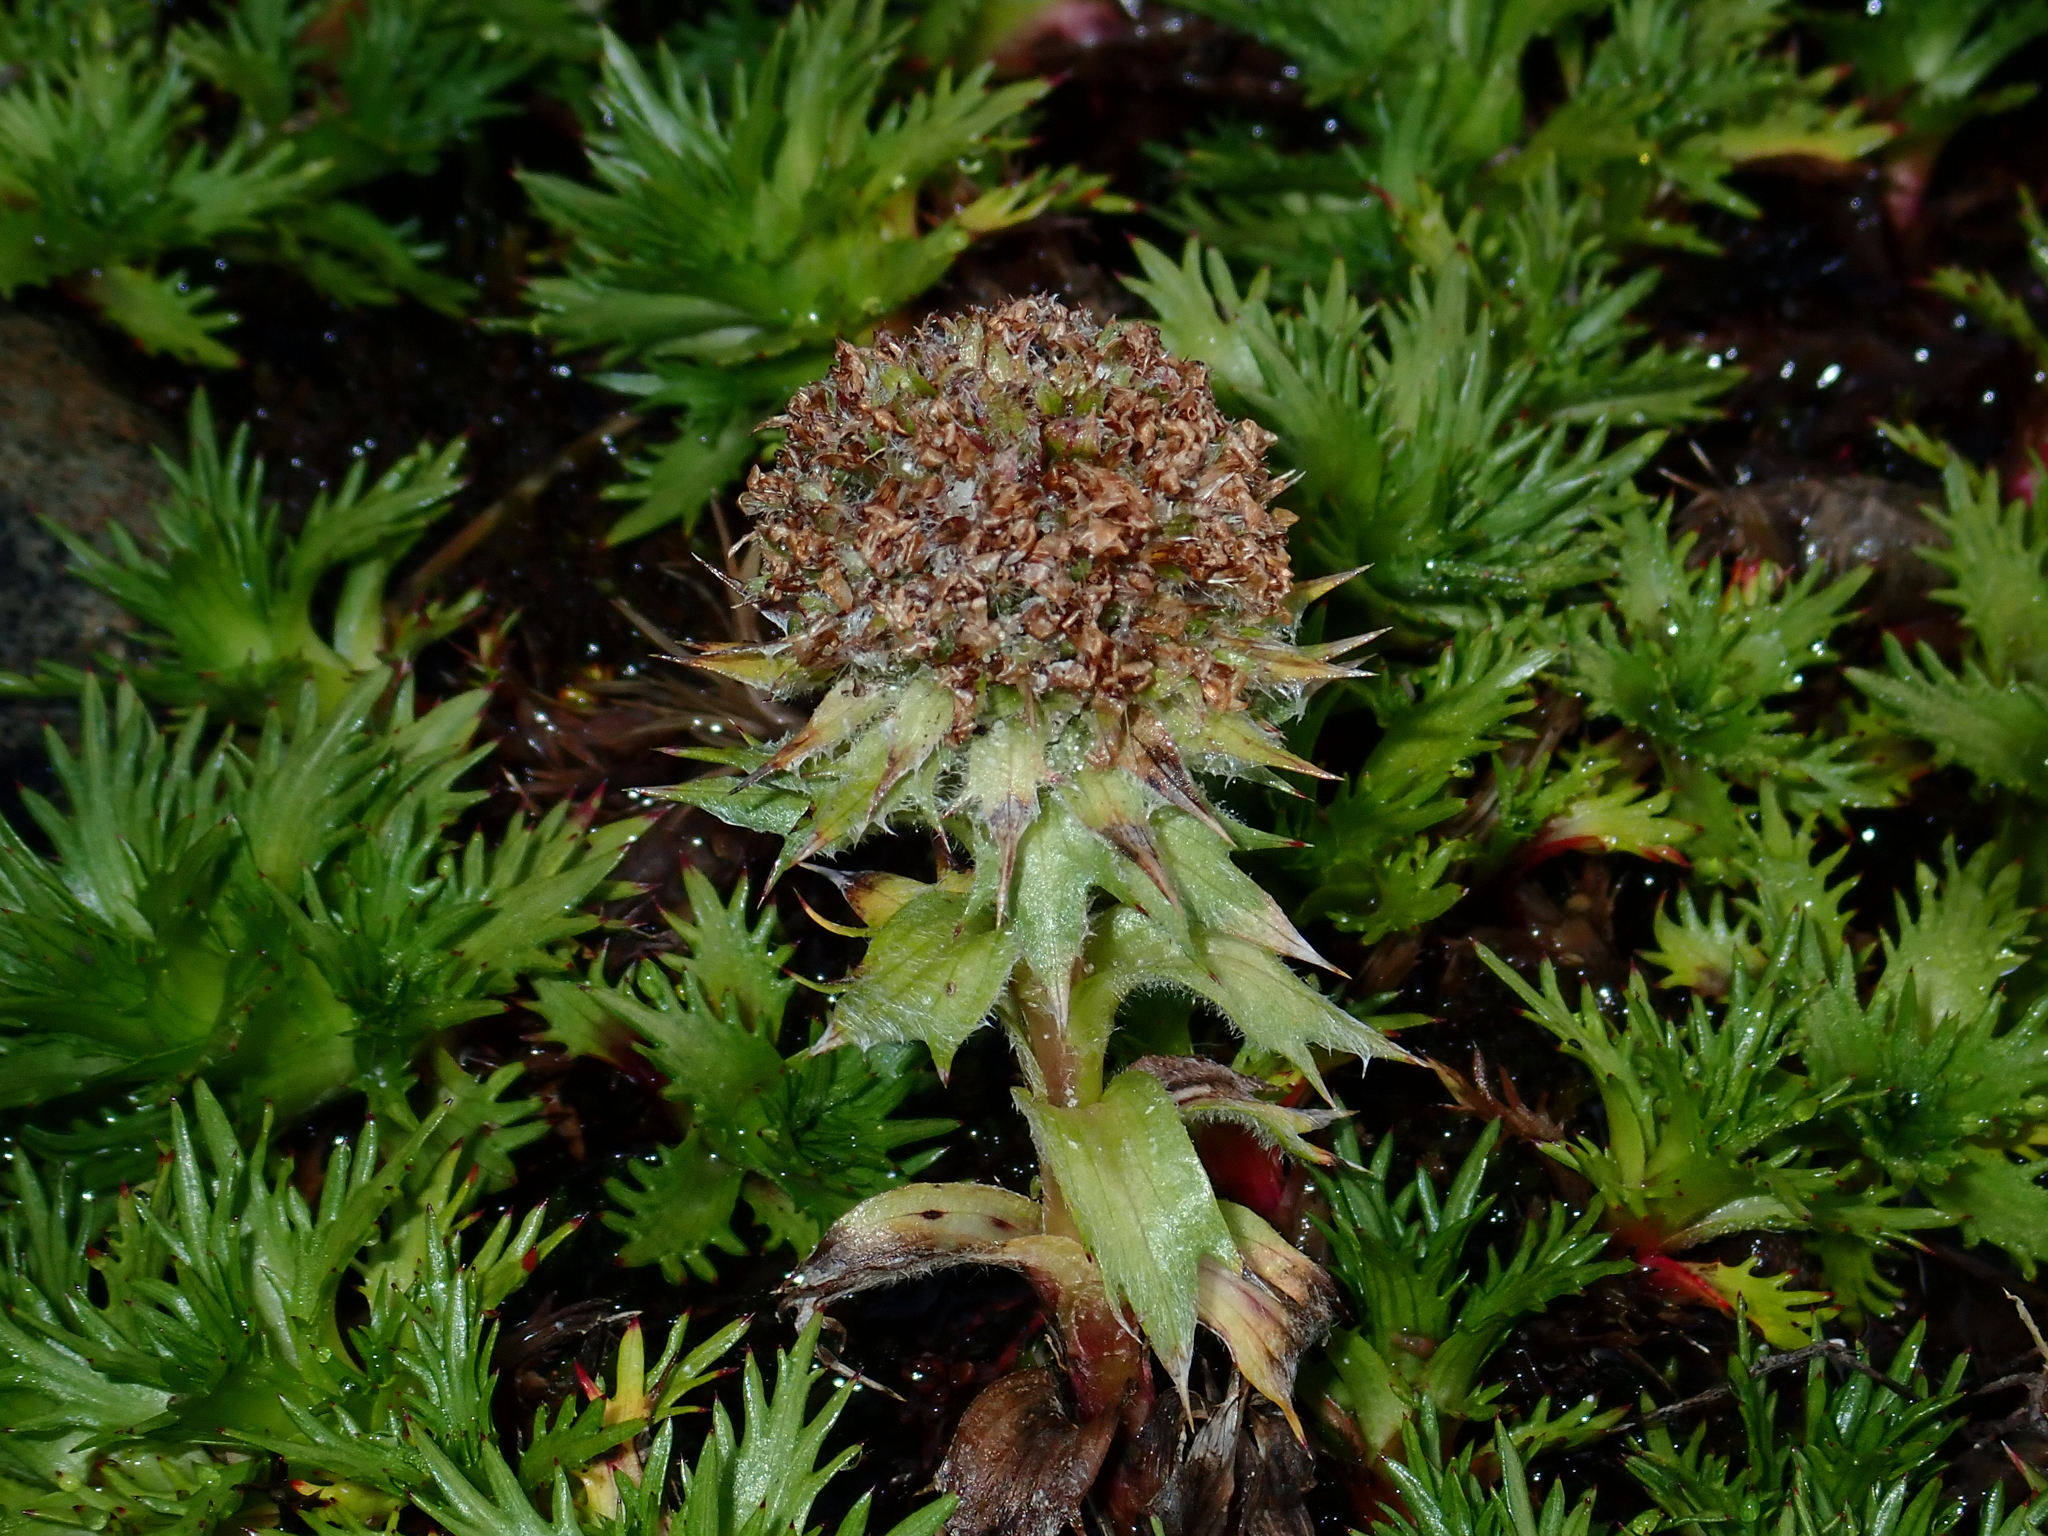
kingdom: Plantae
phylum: Tracheophyta
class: Magnoliopsida
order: Asterales
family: Asteraceae
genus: Nassauvia
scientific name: Nassauvia magellanica
